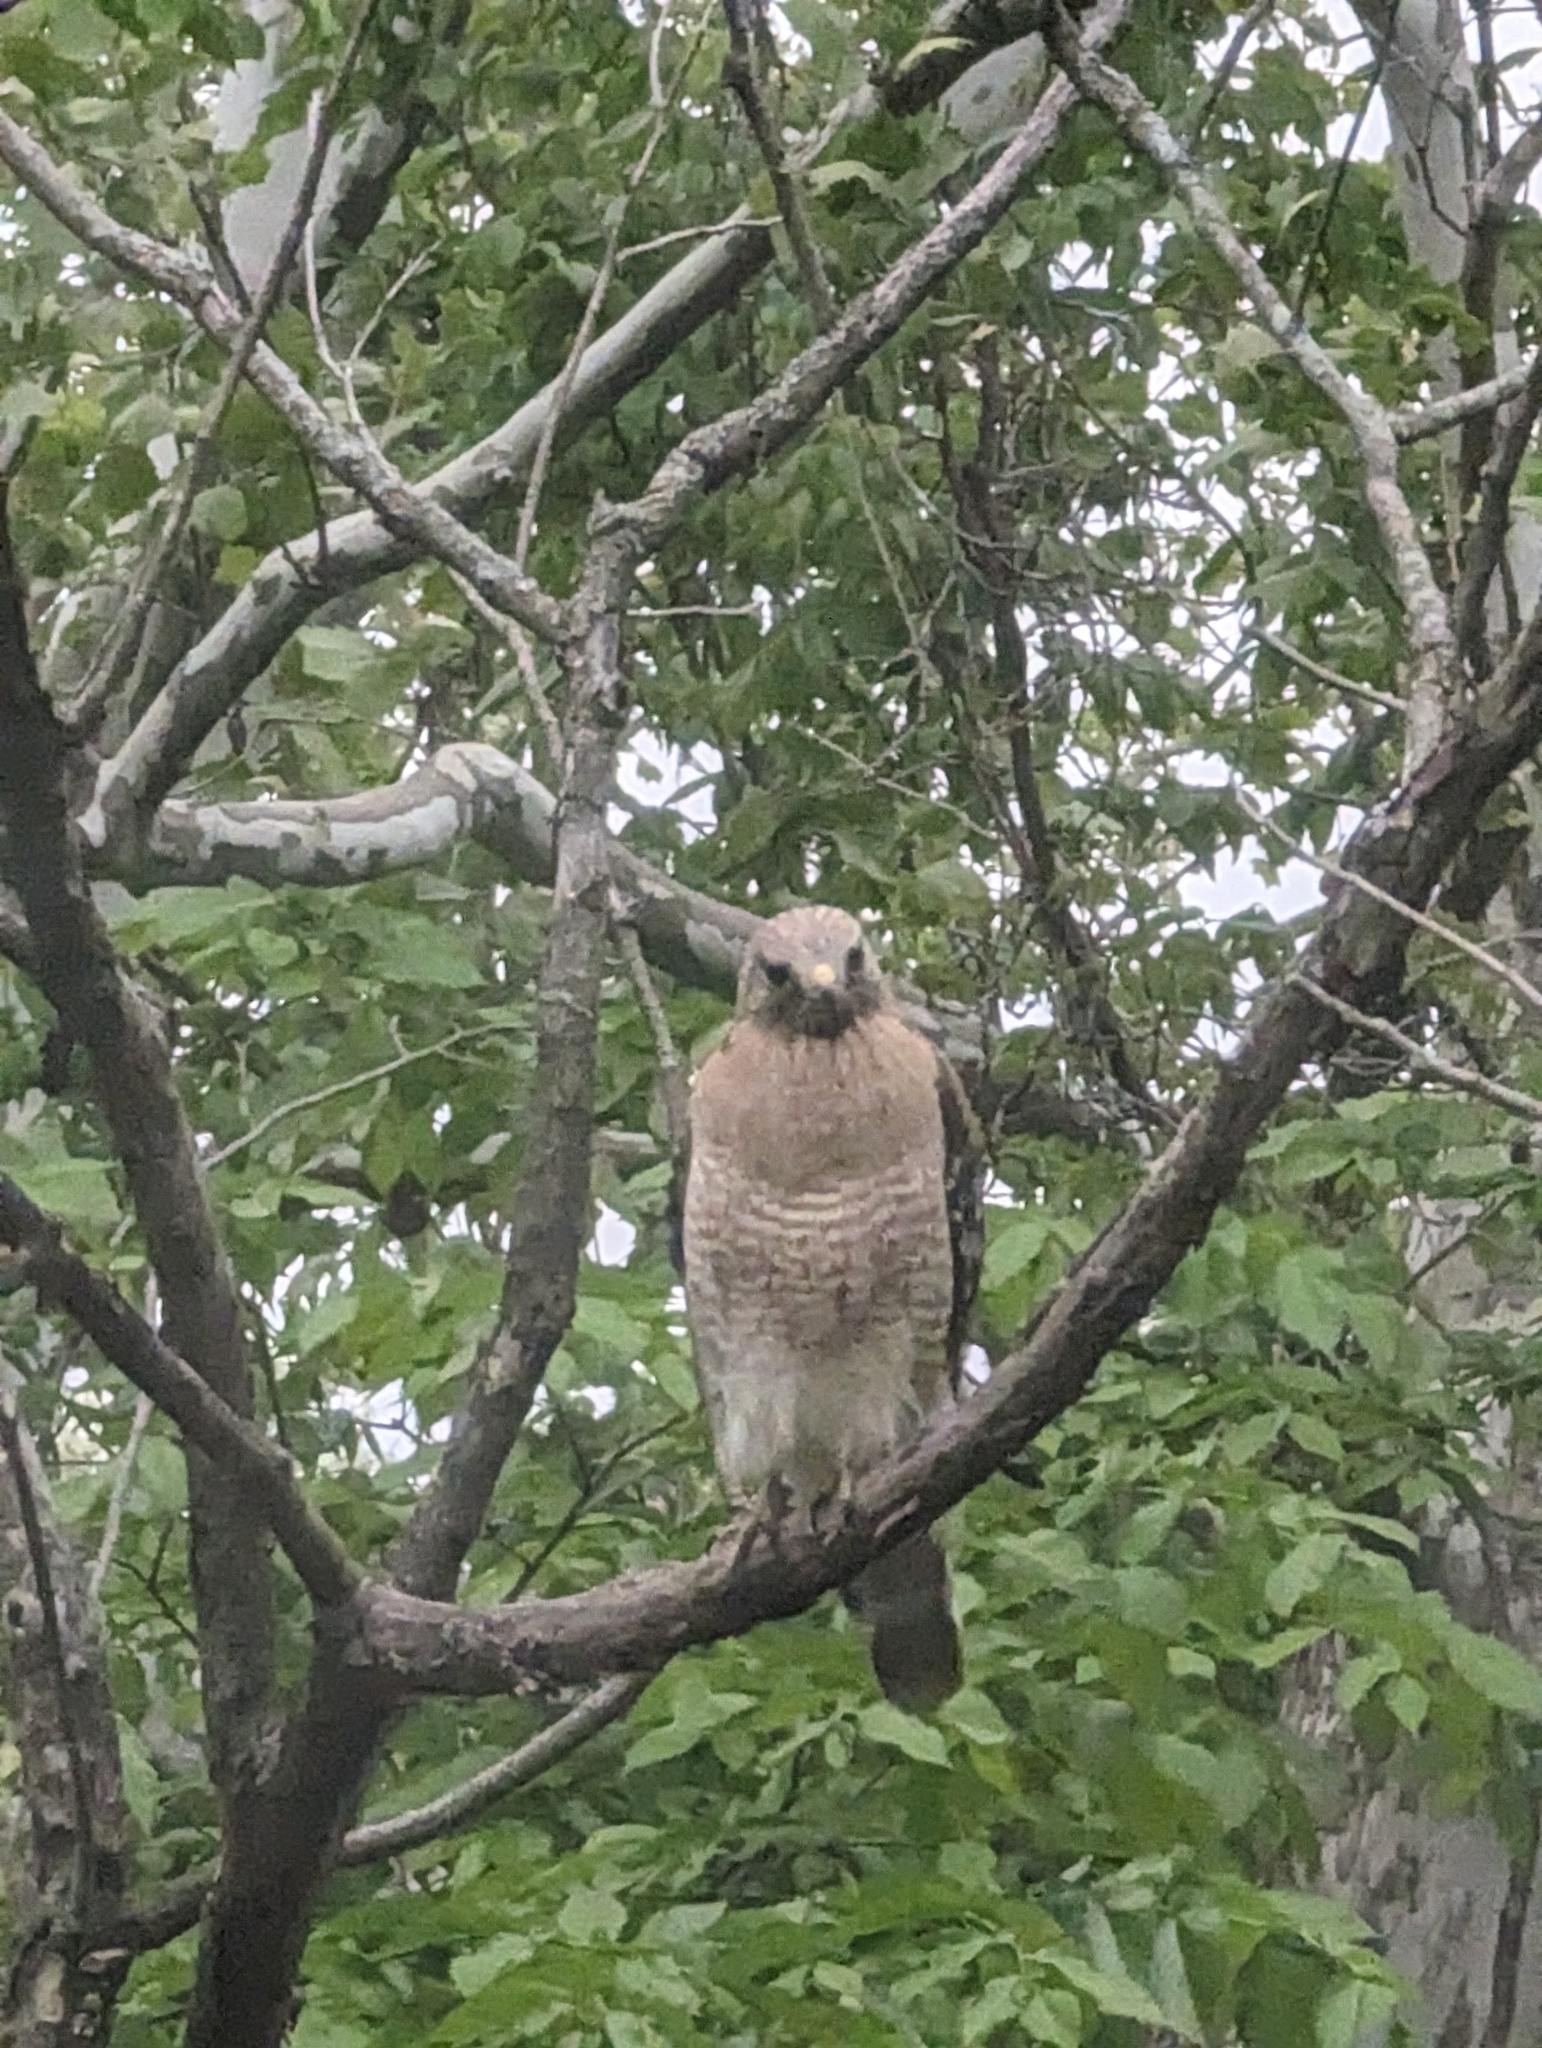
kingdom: Animalia
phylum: Chordata
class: Aves
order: Accipitriformes
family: Accipitridae
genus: Buteo
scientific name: Buteo lineatus
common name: Red-shouldered hawk
